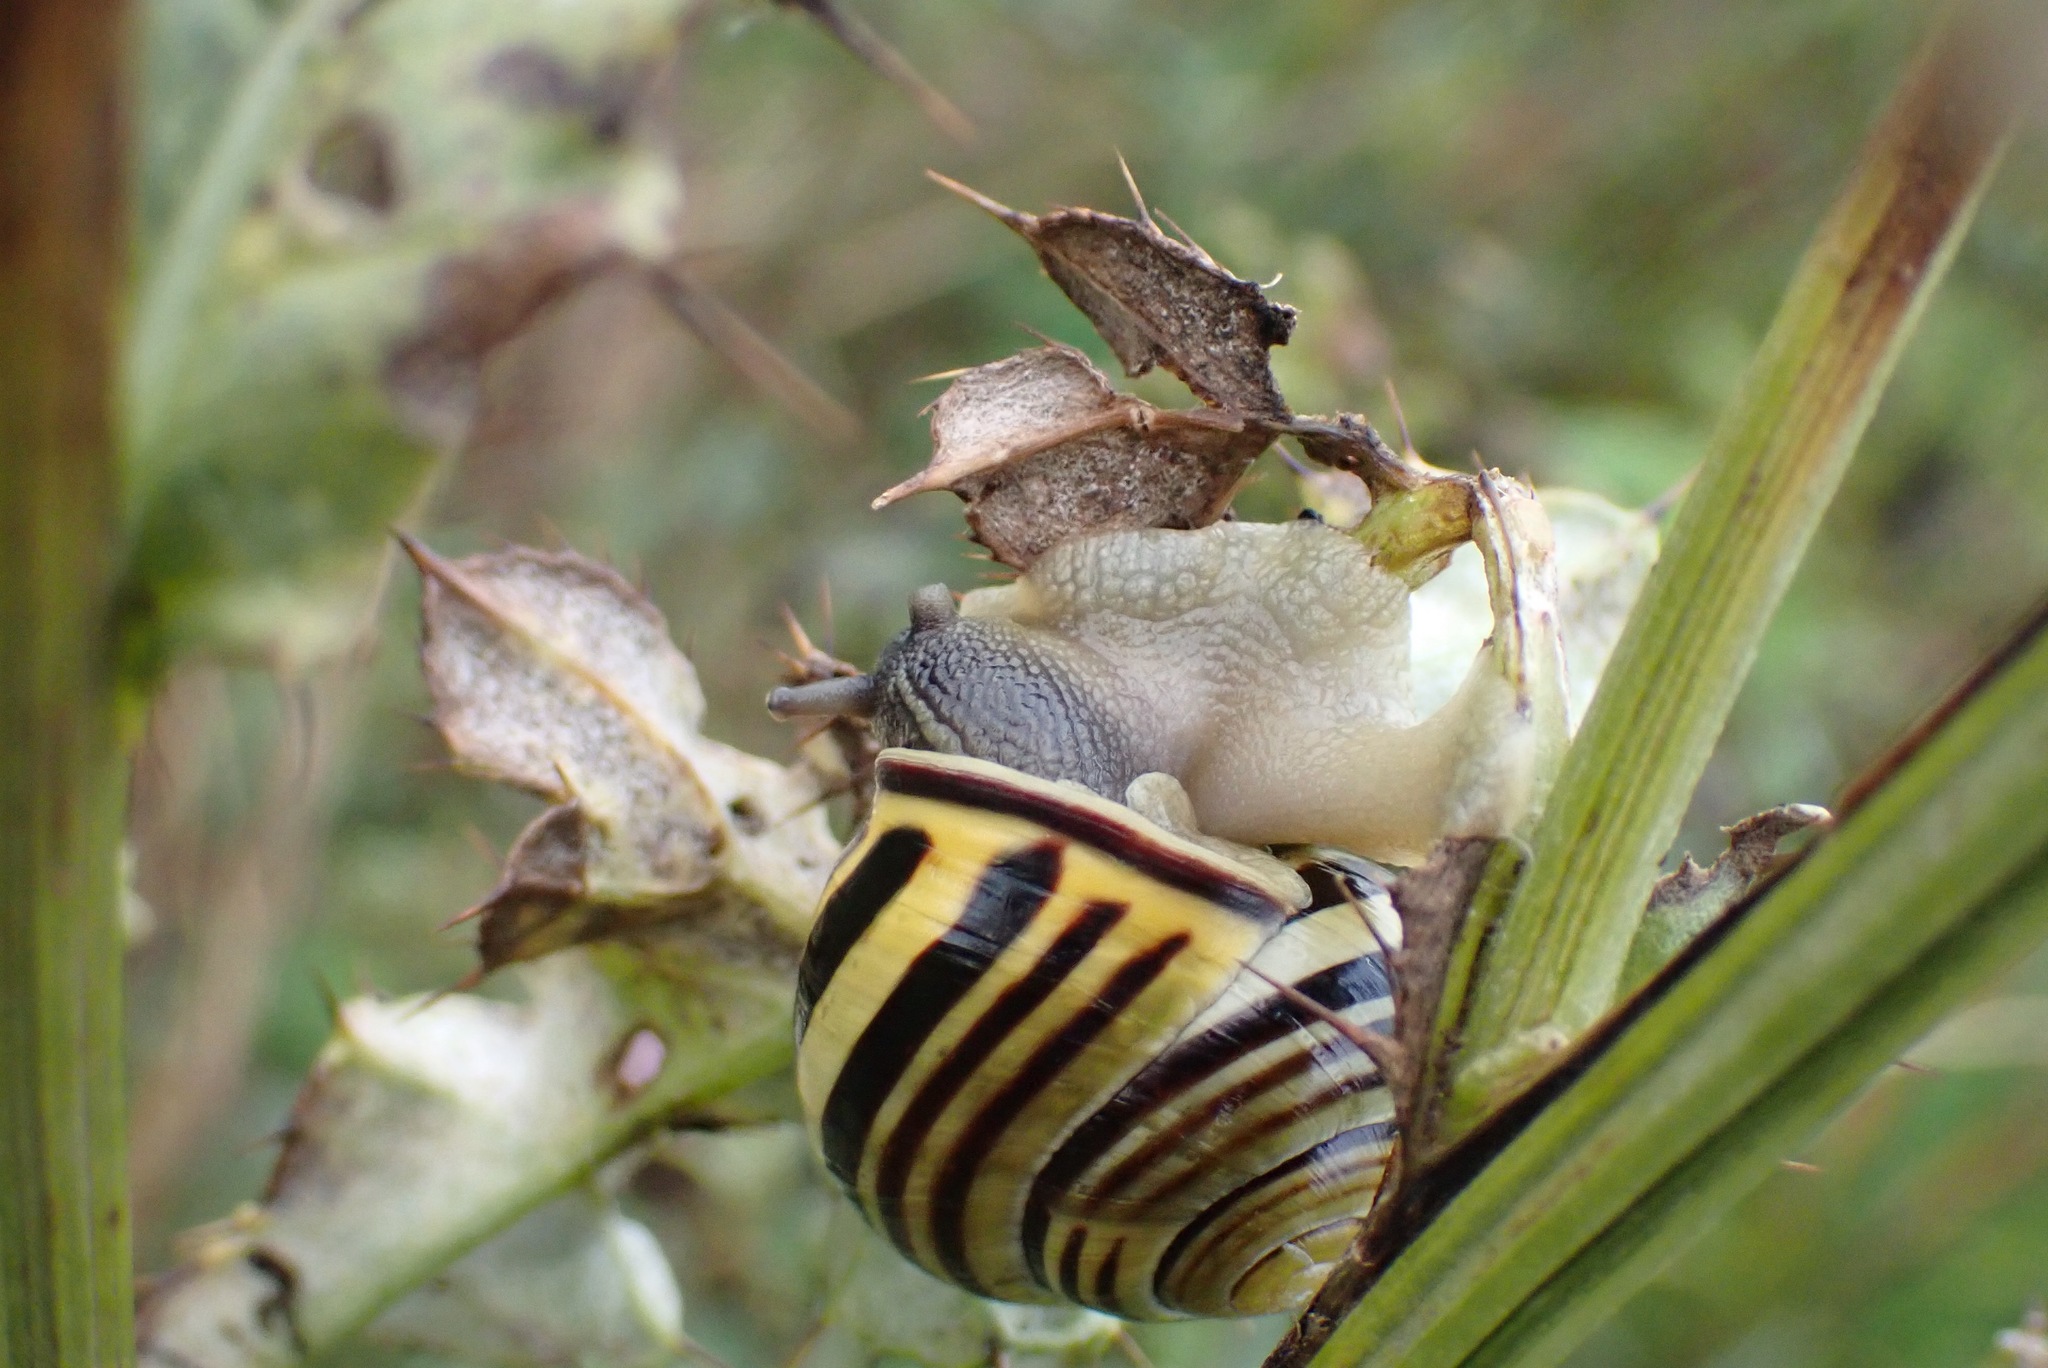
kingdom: Animalia
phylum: Mollusca
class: Gastropoda
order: Stylommatophora
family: Helicidae
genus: Cepaea
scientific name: Cepaea nemoralis
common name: Grovesnail
